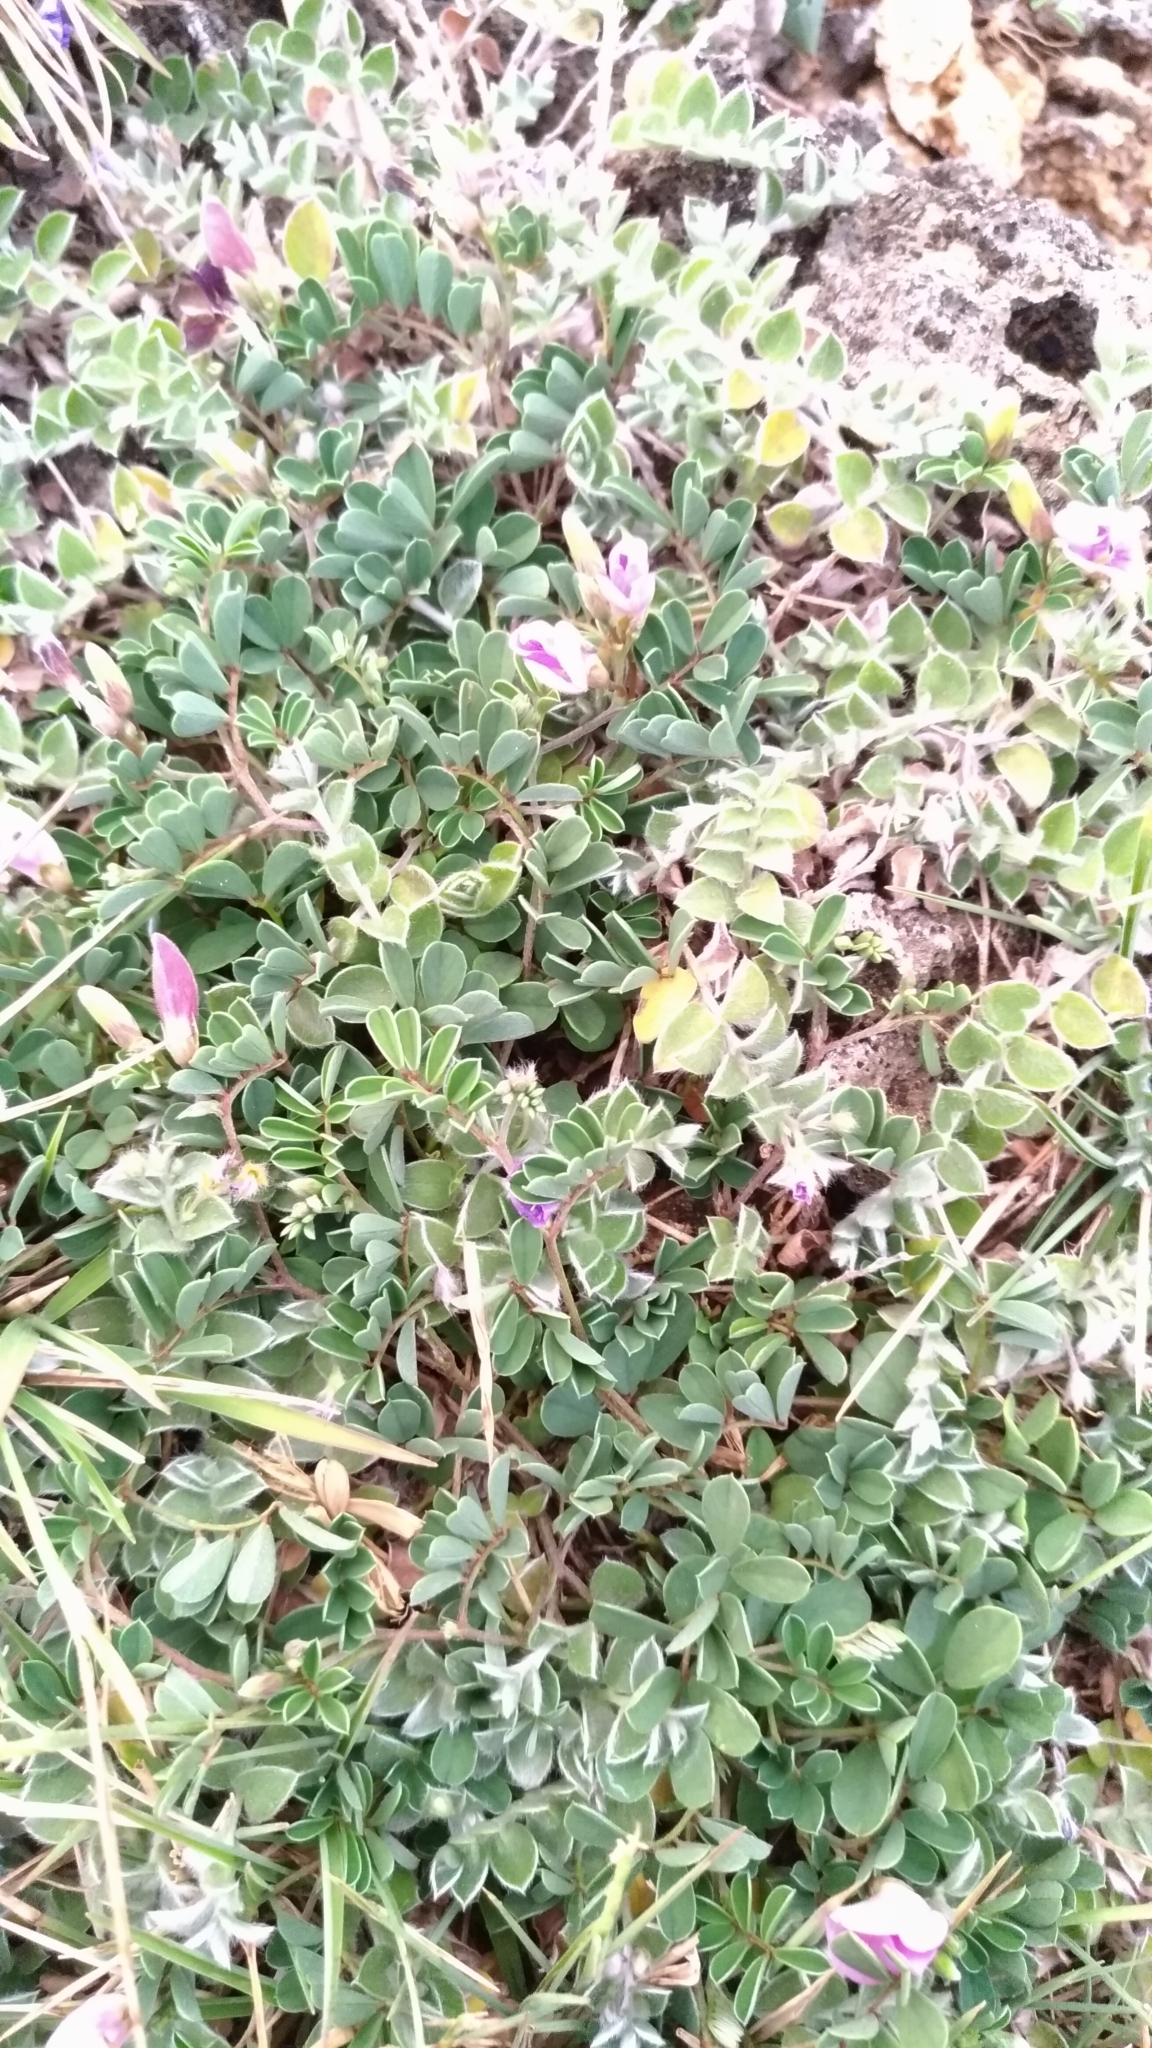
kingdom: Plantae
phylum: Tracheophyta
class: Magnoliopsida
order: Fabales
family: Fabaceae
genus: Tephrosia
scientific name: Tephrosia obovata
